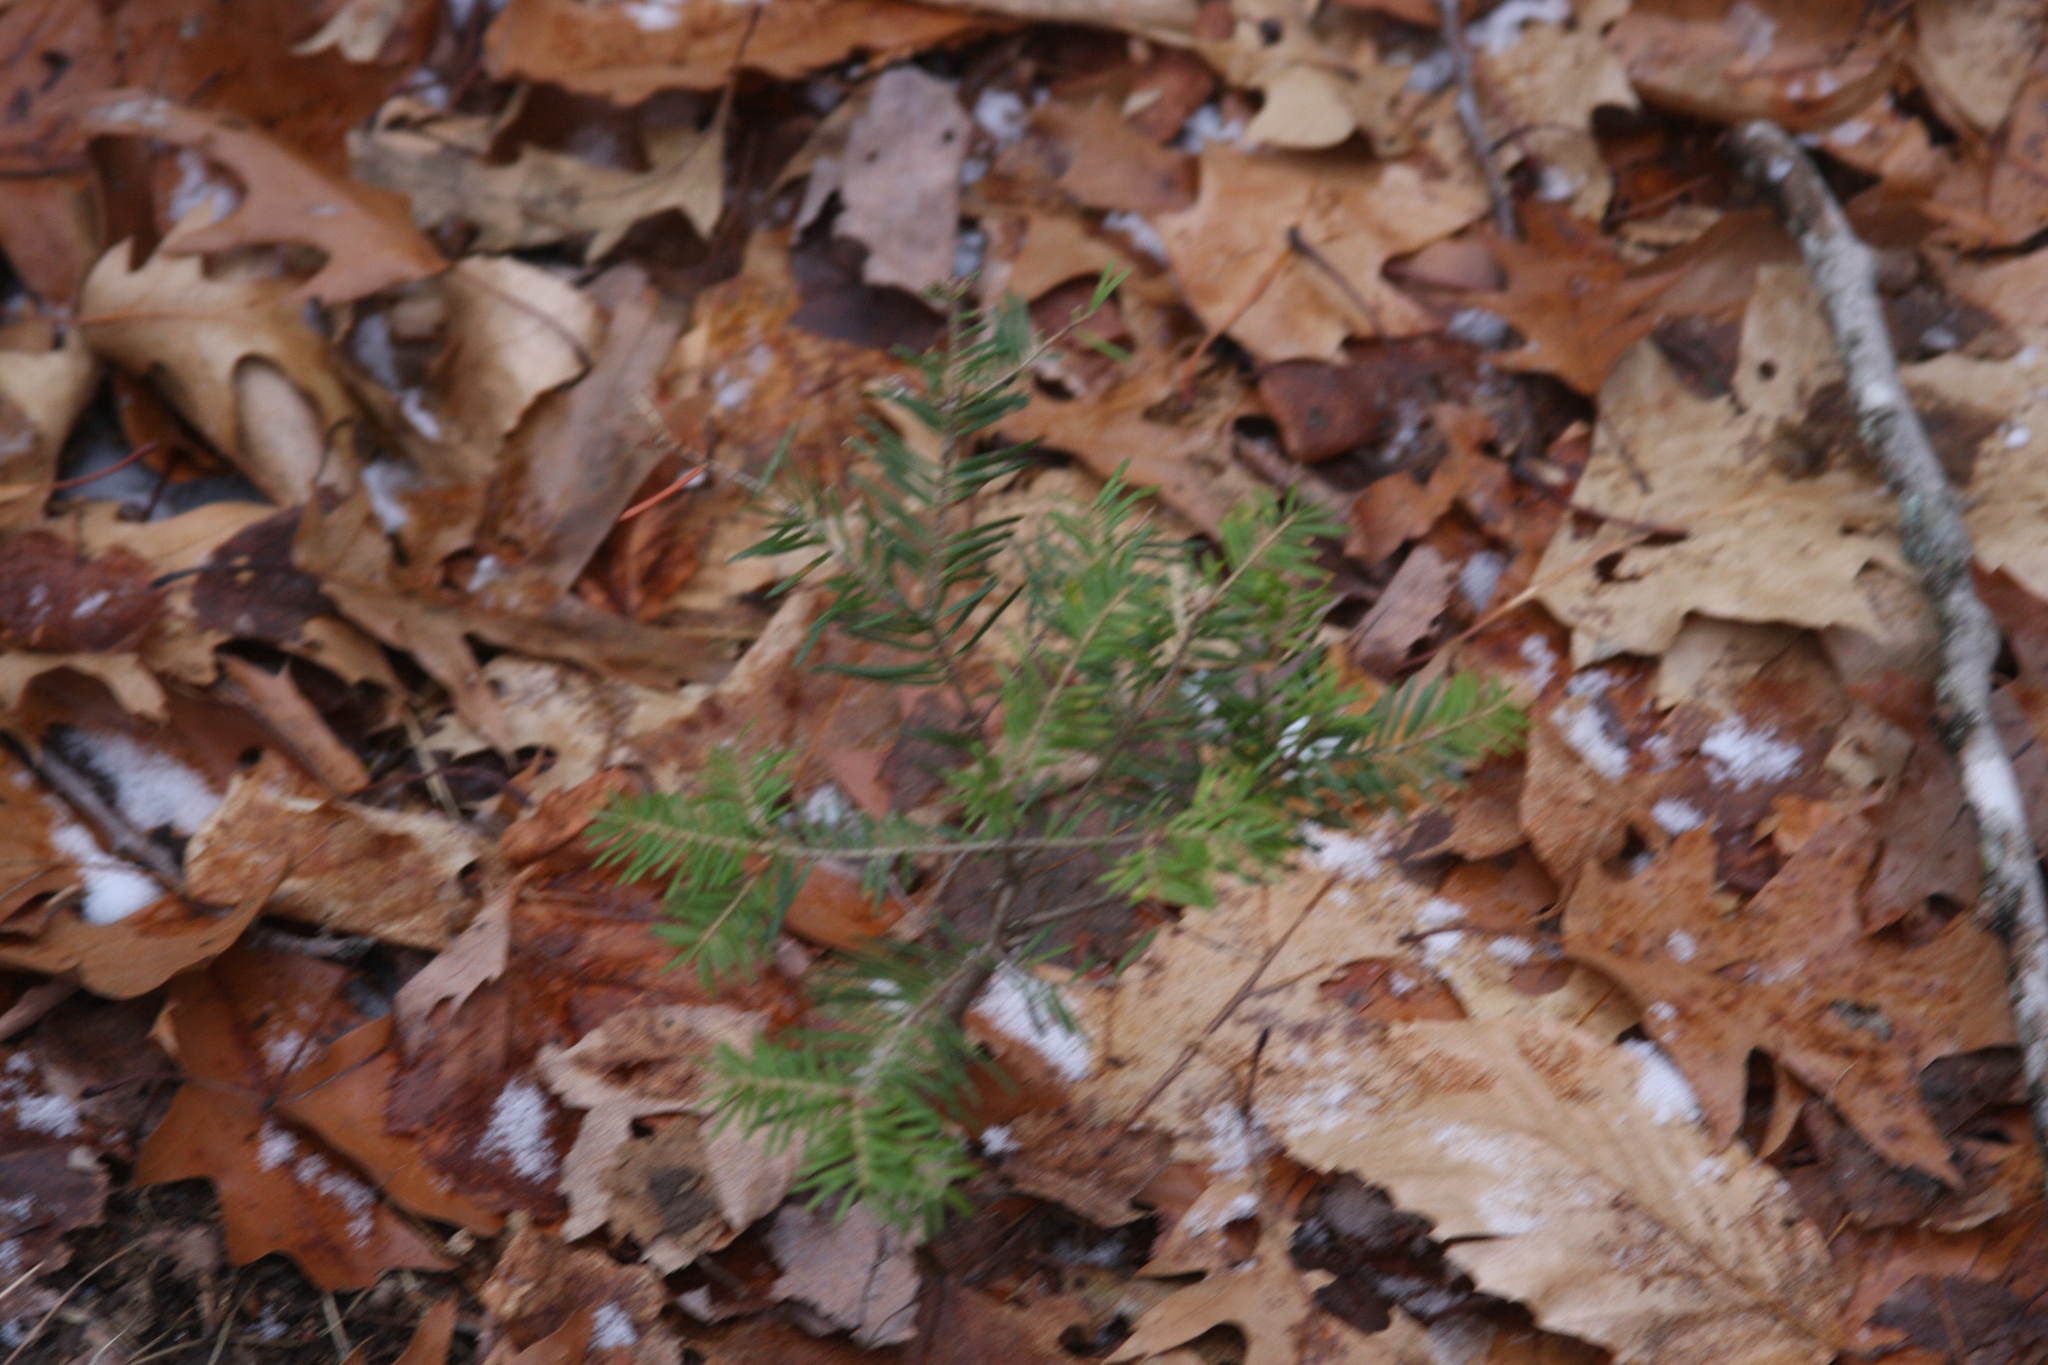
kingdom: Plantae
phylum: Tracheophyta
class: Pinopsida
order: Pinales
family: Pinaceae
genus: Tsuga
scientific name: Tsuga canadensis
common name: Eastern hemlock
